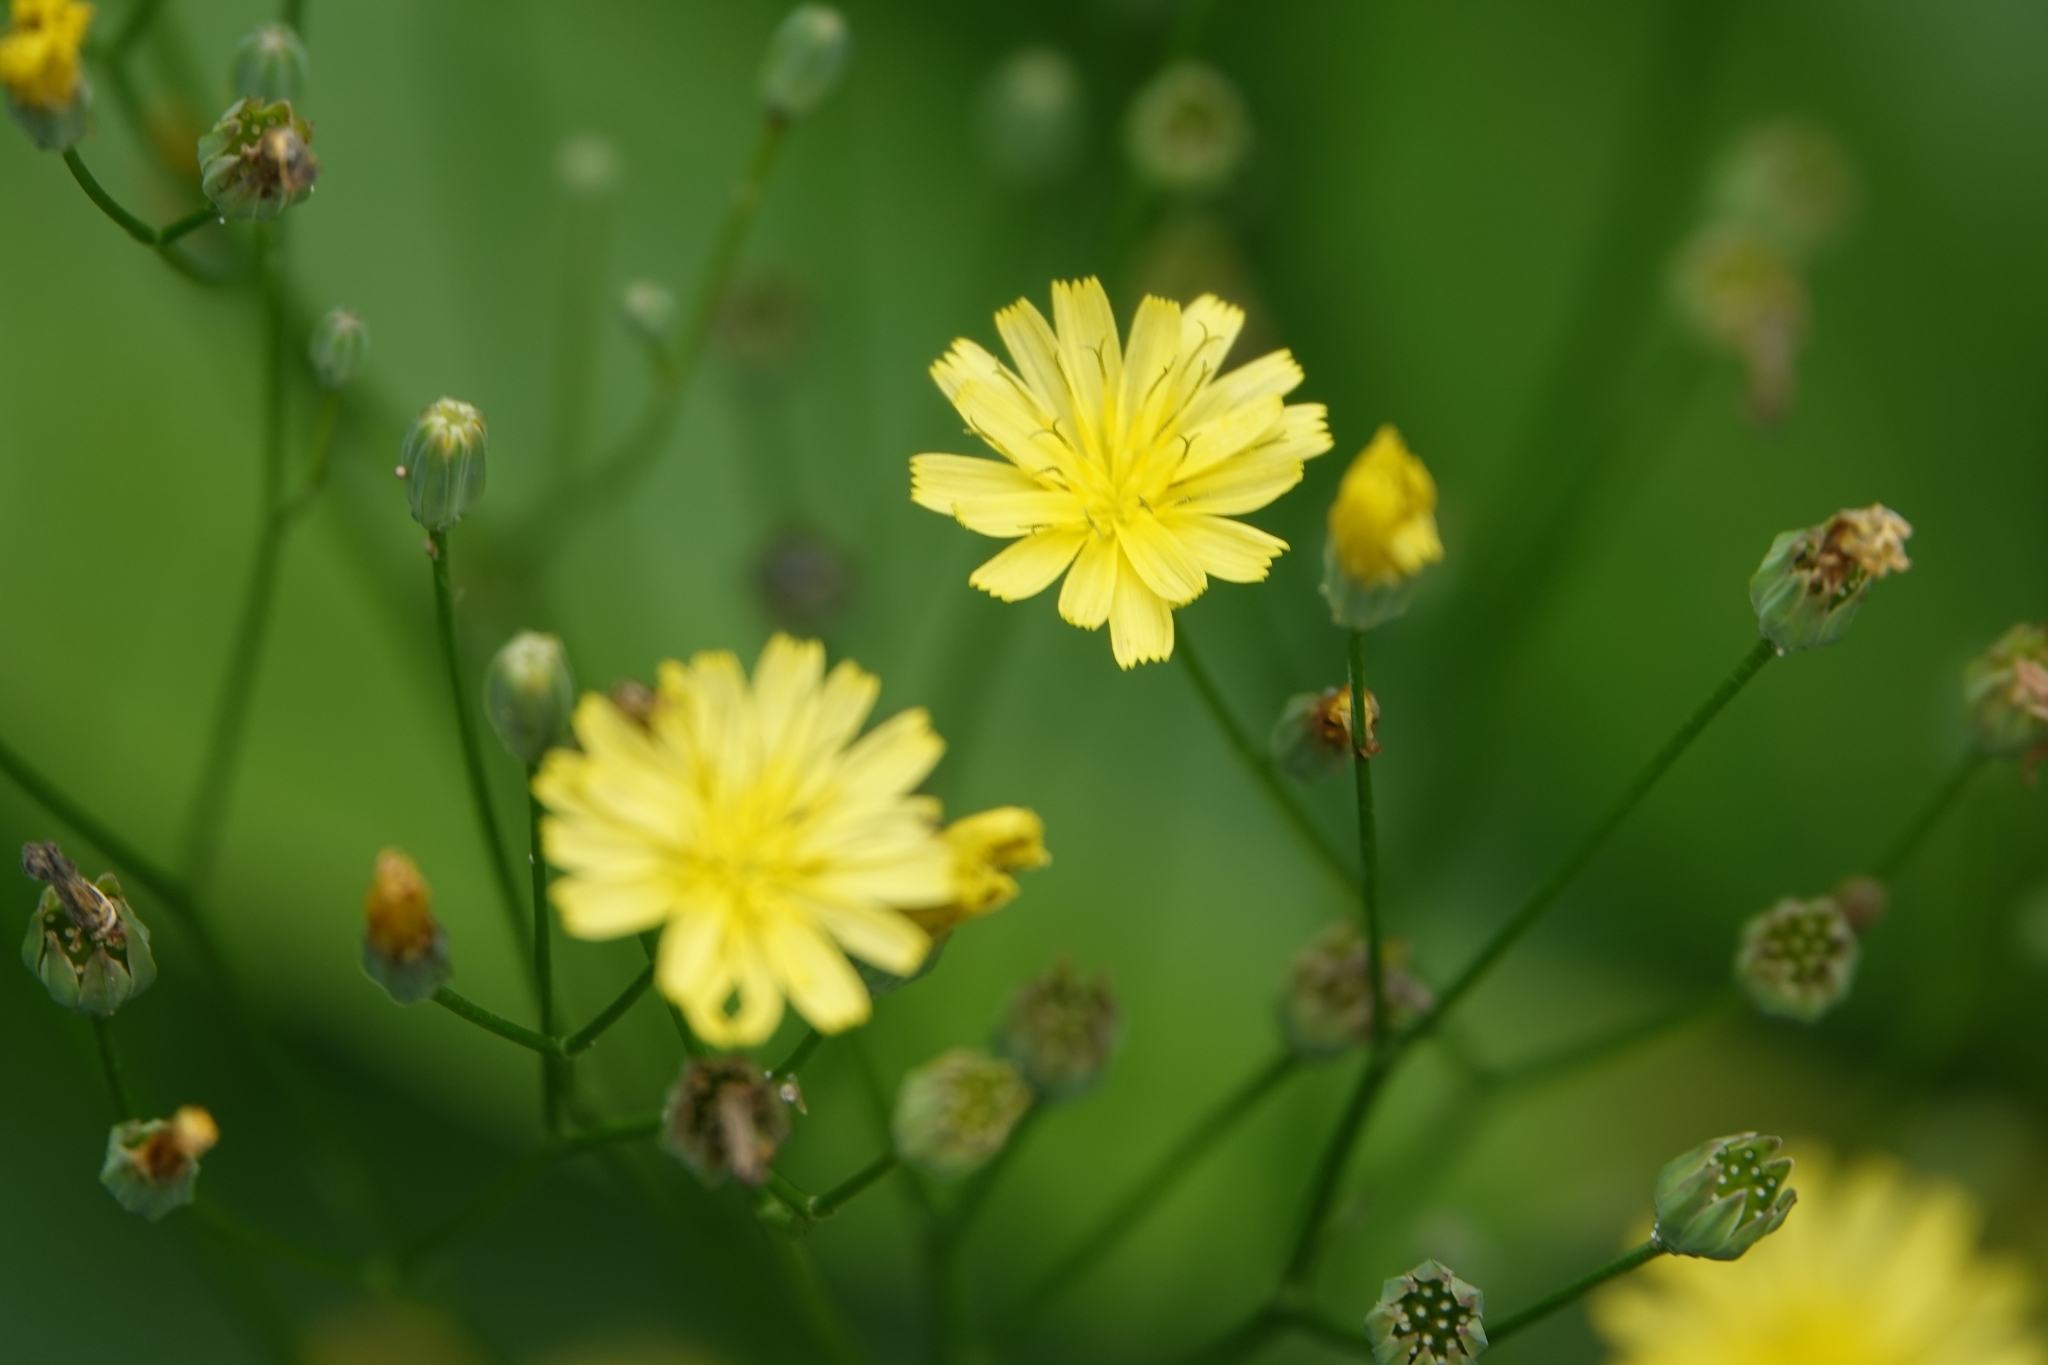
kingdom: Plantae
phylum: Tracheophyta
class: Magnoliopsida
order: Asterales
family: Asteraceae
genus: Lapsana
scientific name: Lapsana communis
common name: Nipplewort
